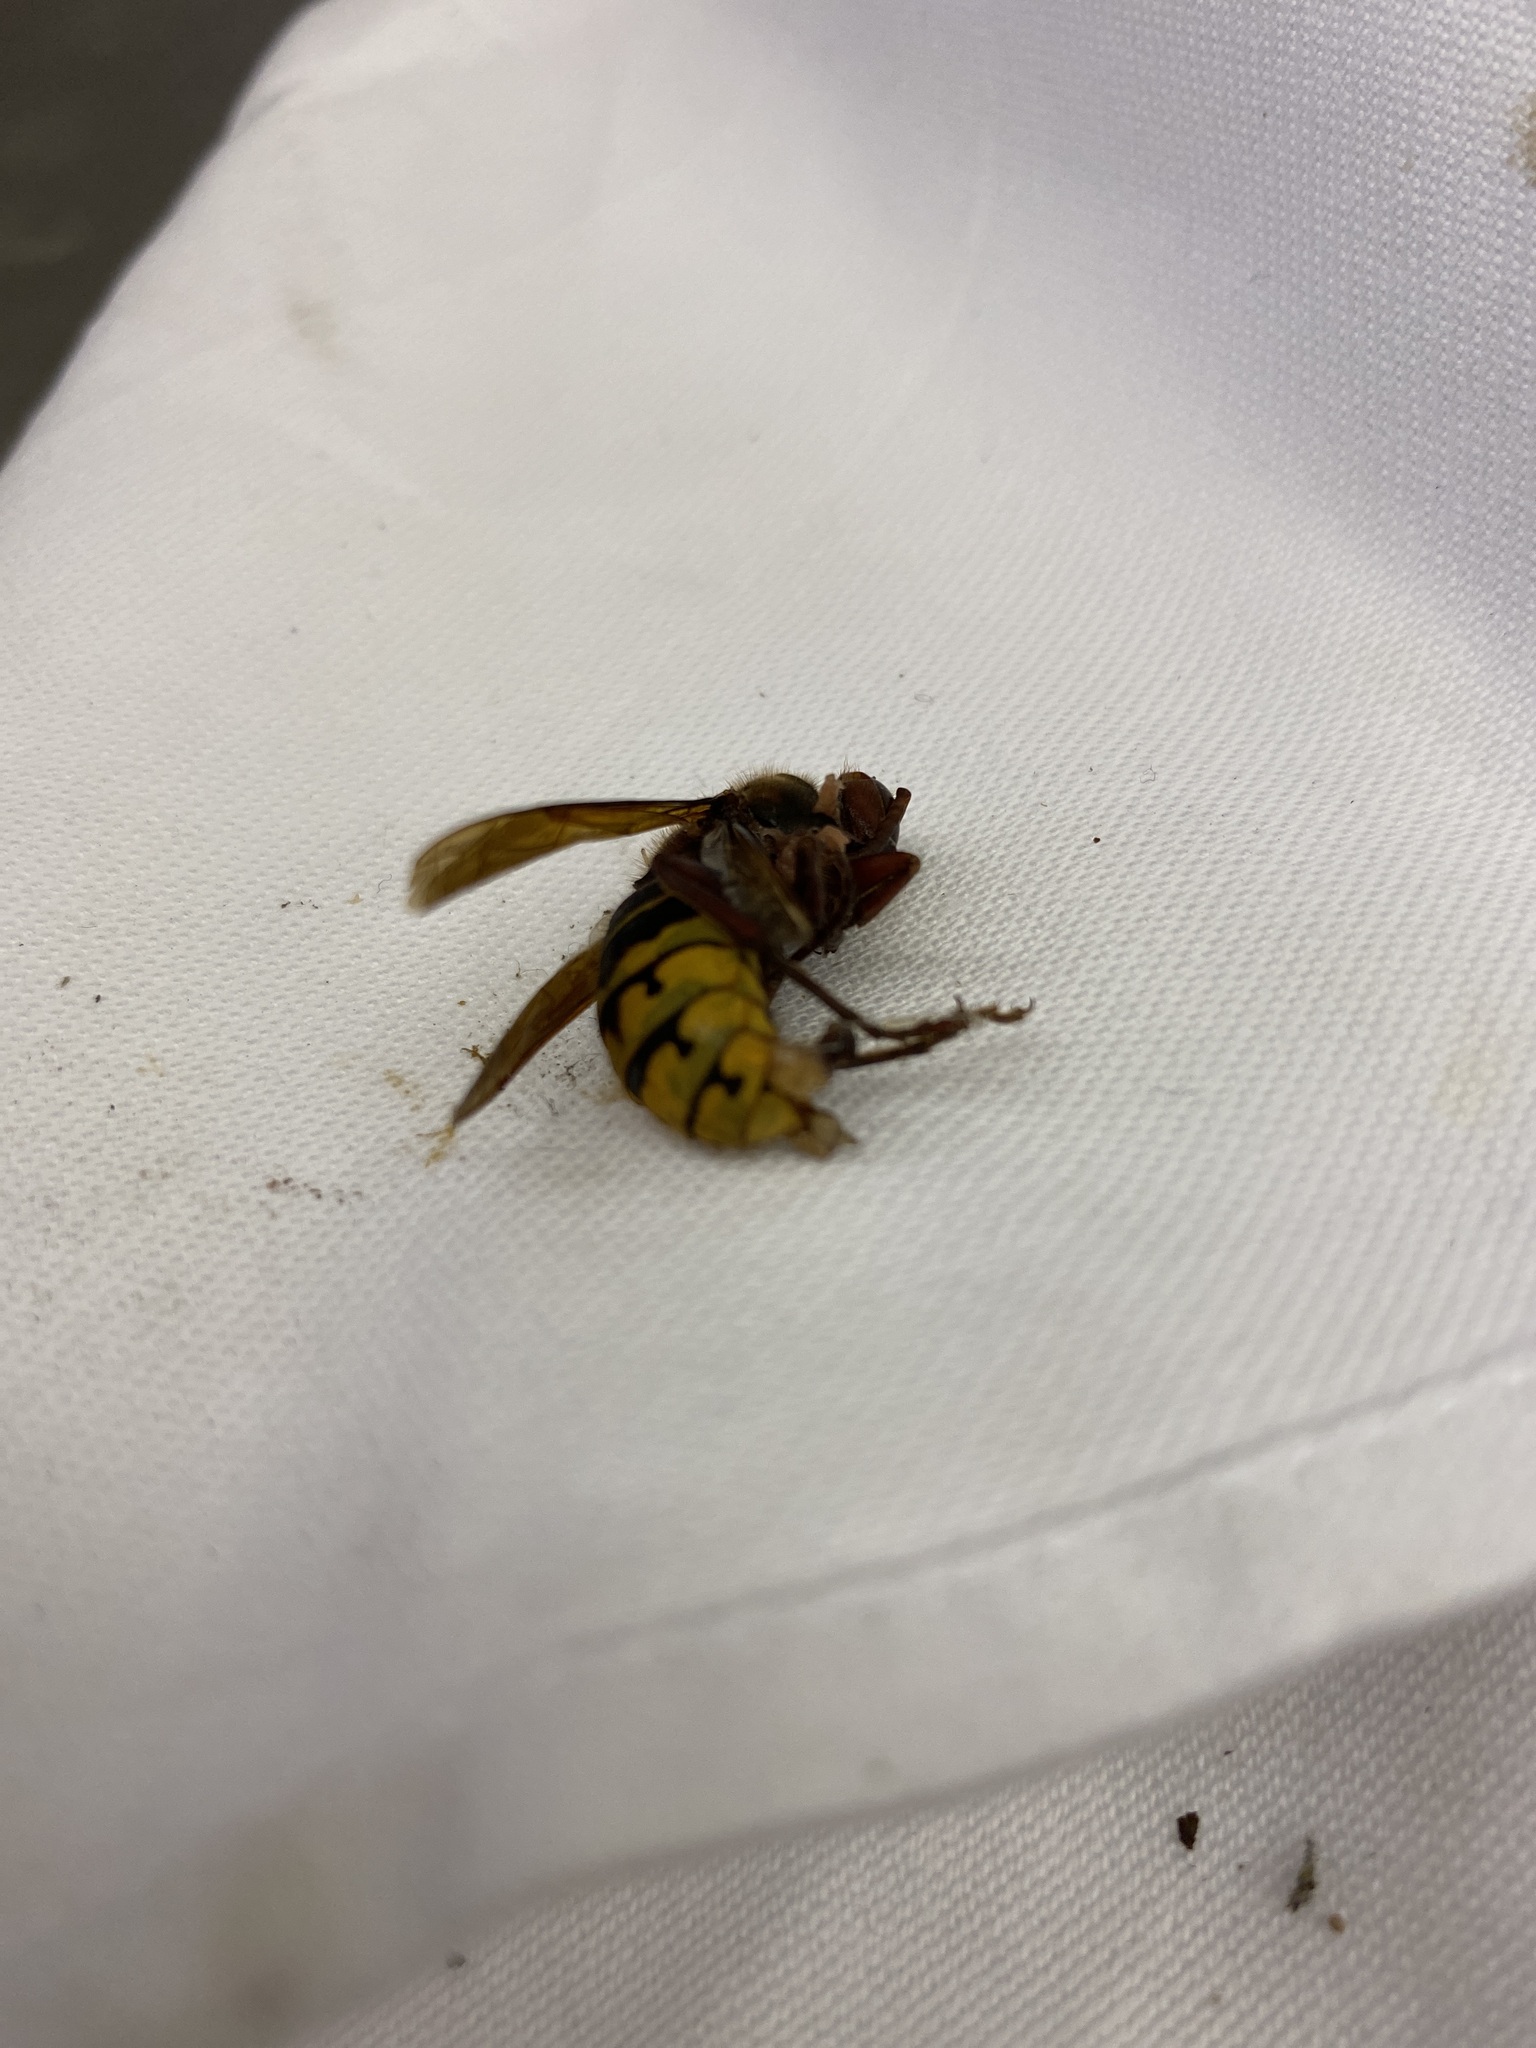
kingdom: Animalia
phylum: Arthropoda
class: Insecta
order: Hymenoptera
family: Vespidae
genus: Vespa
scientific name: Vespa crabro
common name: Hornet
